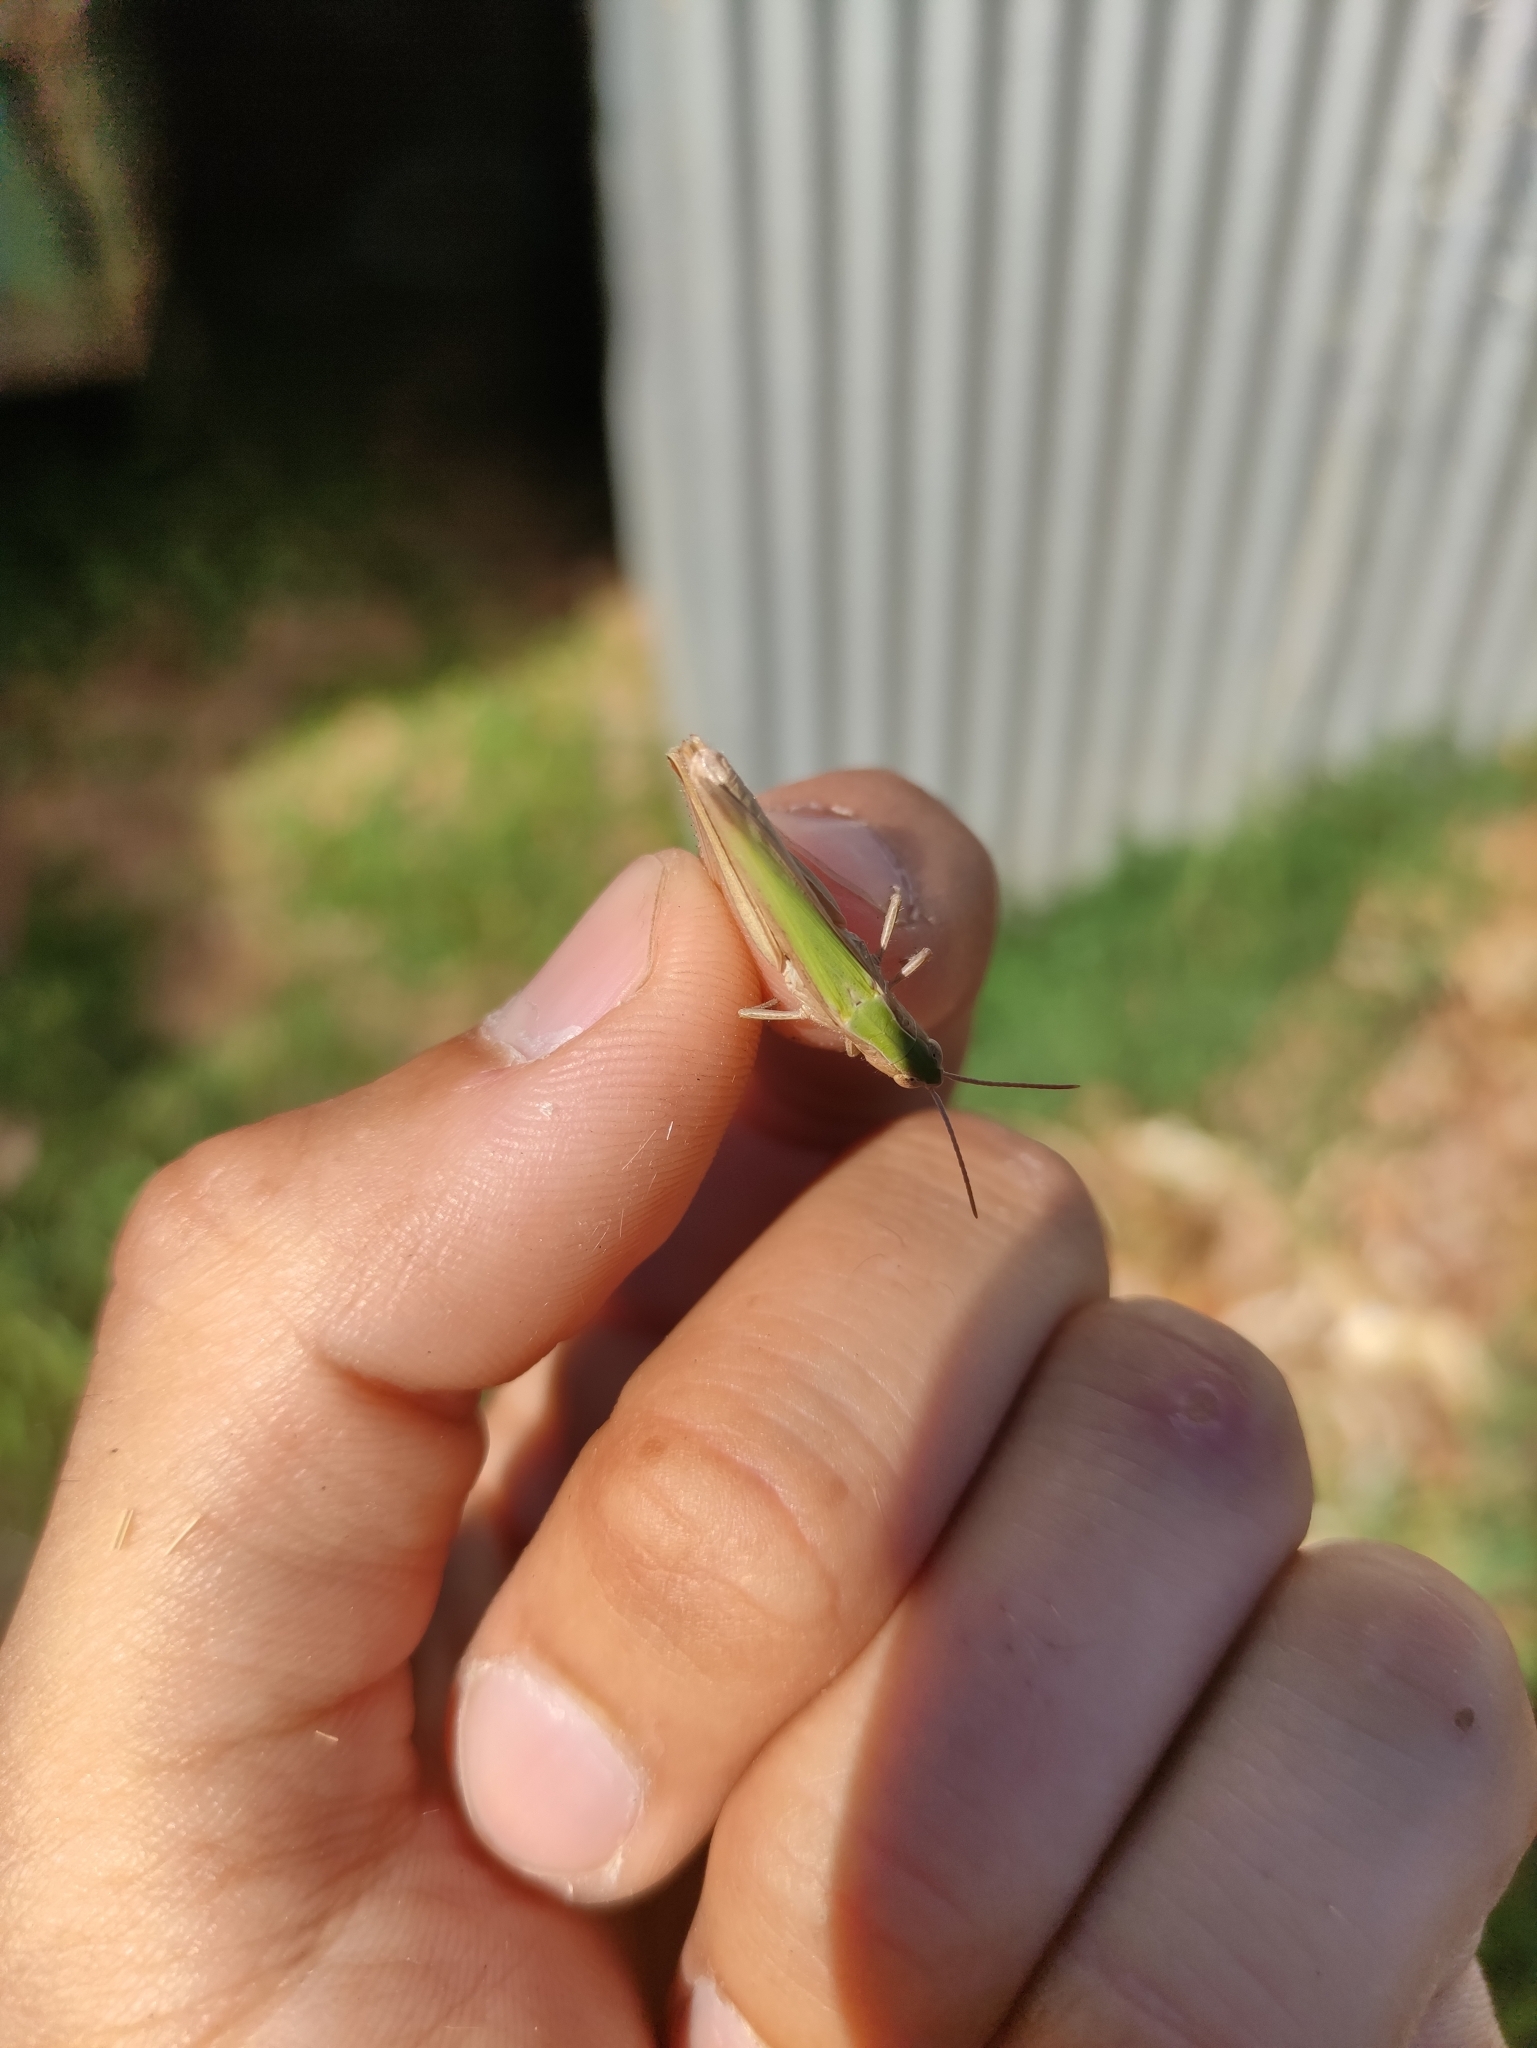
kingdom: Animalia
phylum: Arthropoda
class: Insecta
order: Orthoptera
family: Acrididae
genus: Chorthippus
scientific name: Chorthippus dorsatus
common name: Steppe grasshopper
